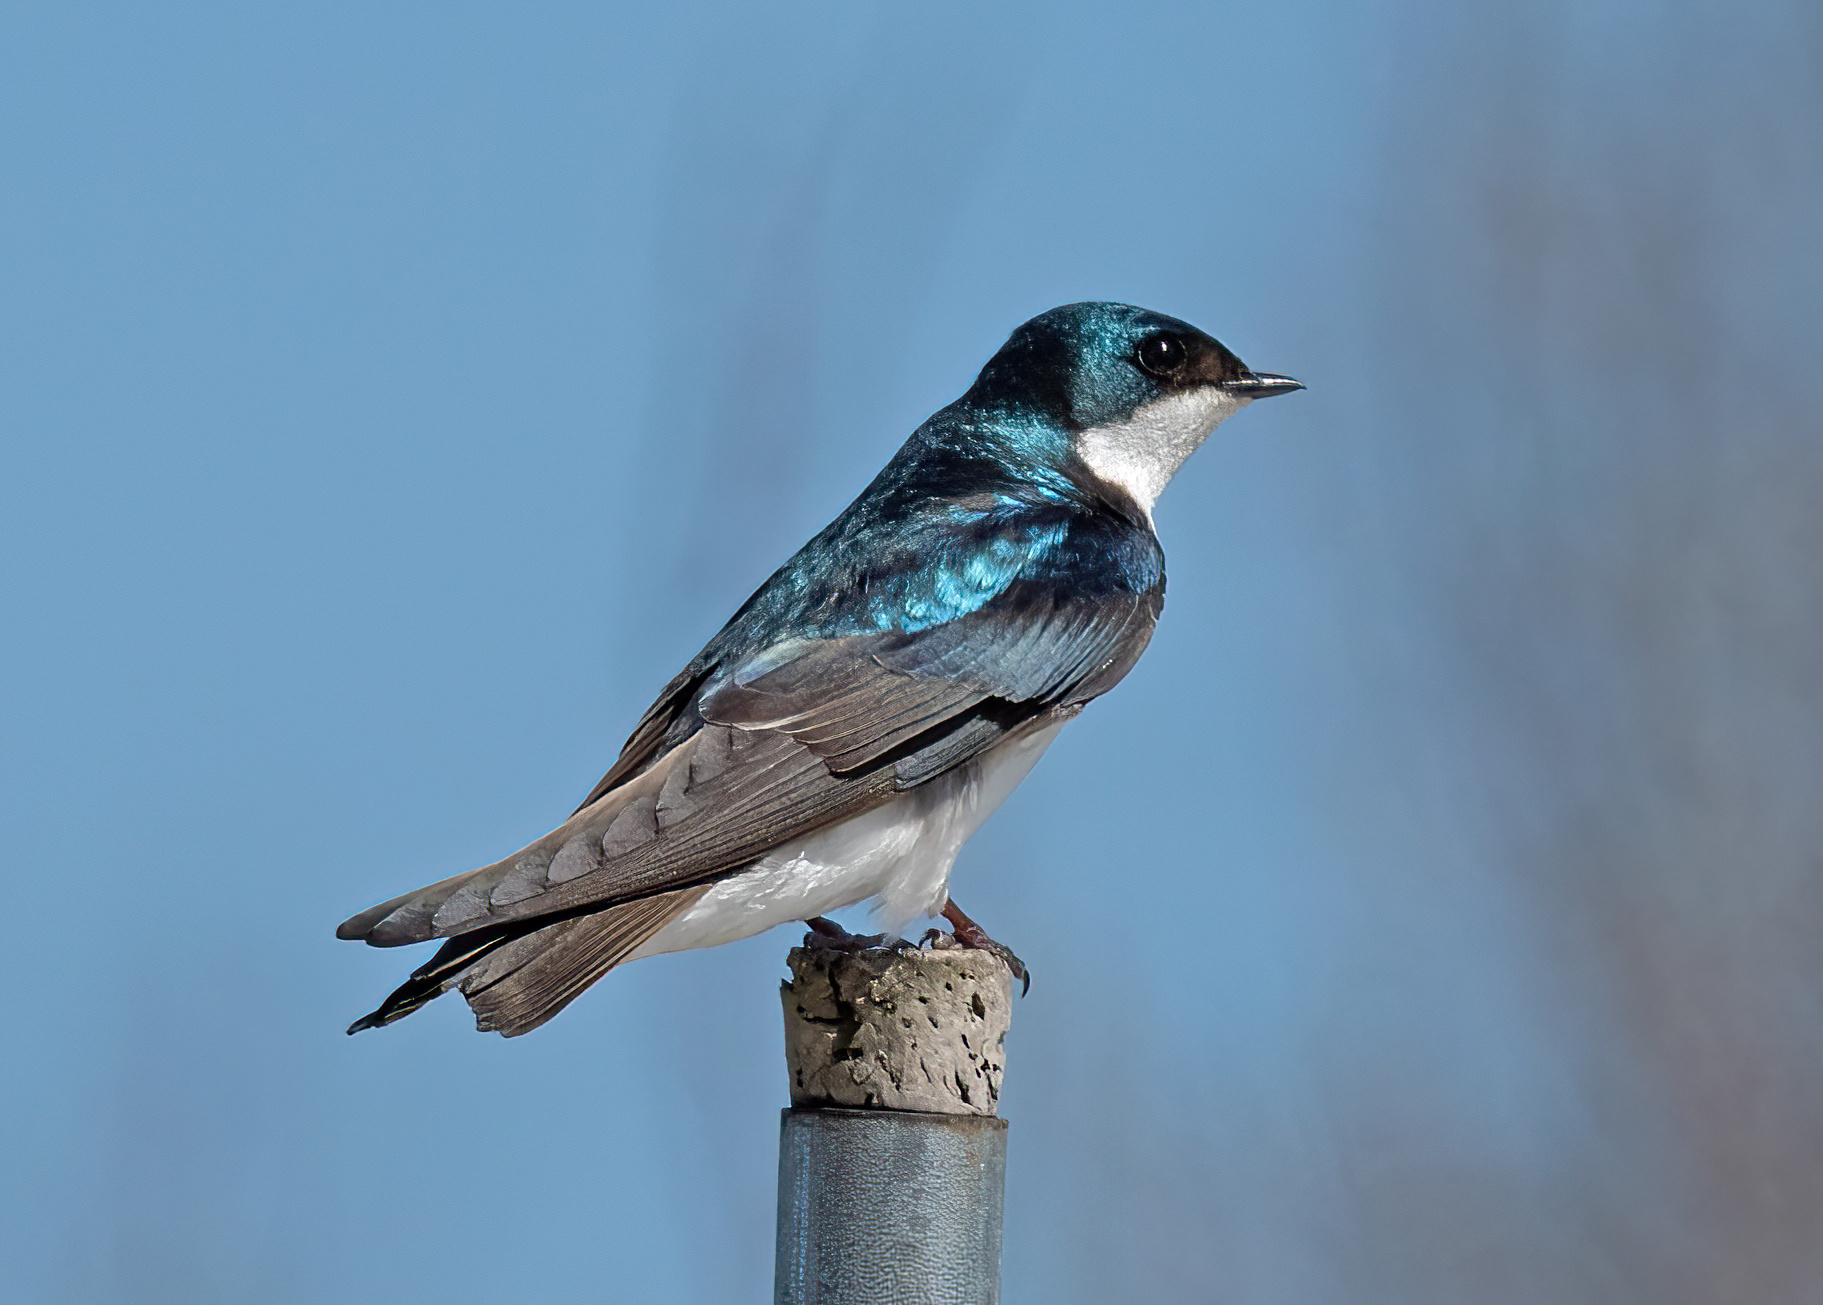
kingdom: Animalia
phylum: Chordata
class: Aves
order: Passeriformes
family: Hirundinidae
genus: Tachycineta
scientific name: Tachycineta bicolor
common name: Tree swallow
